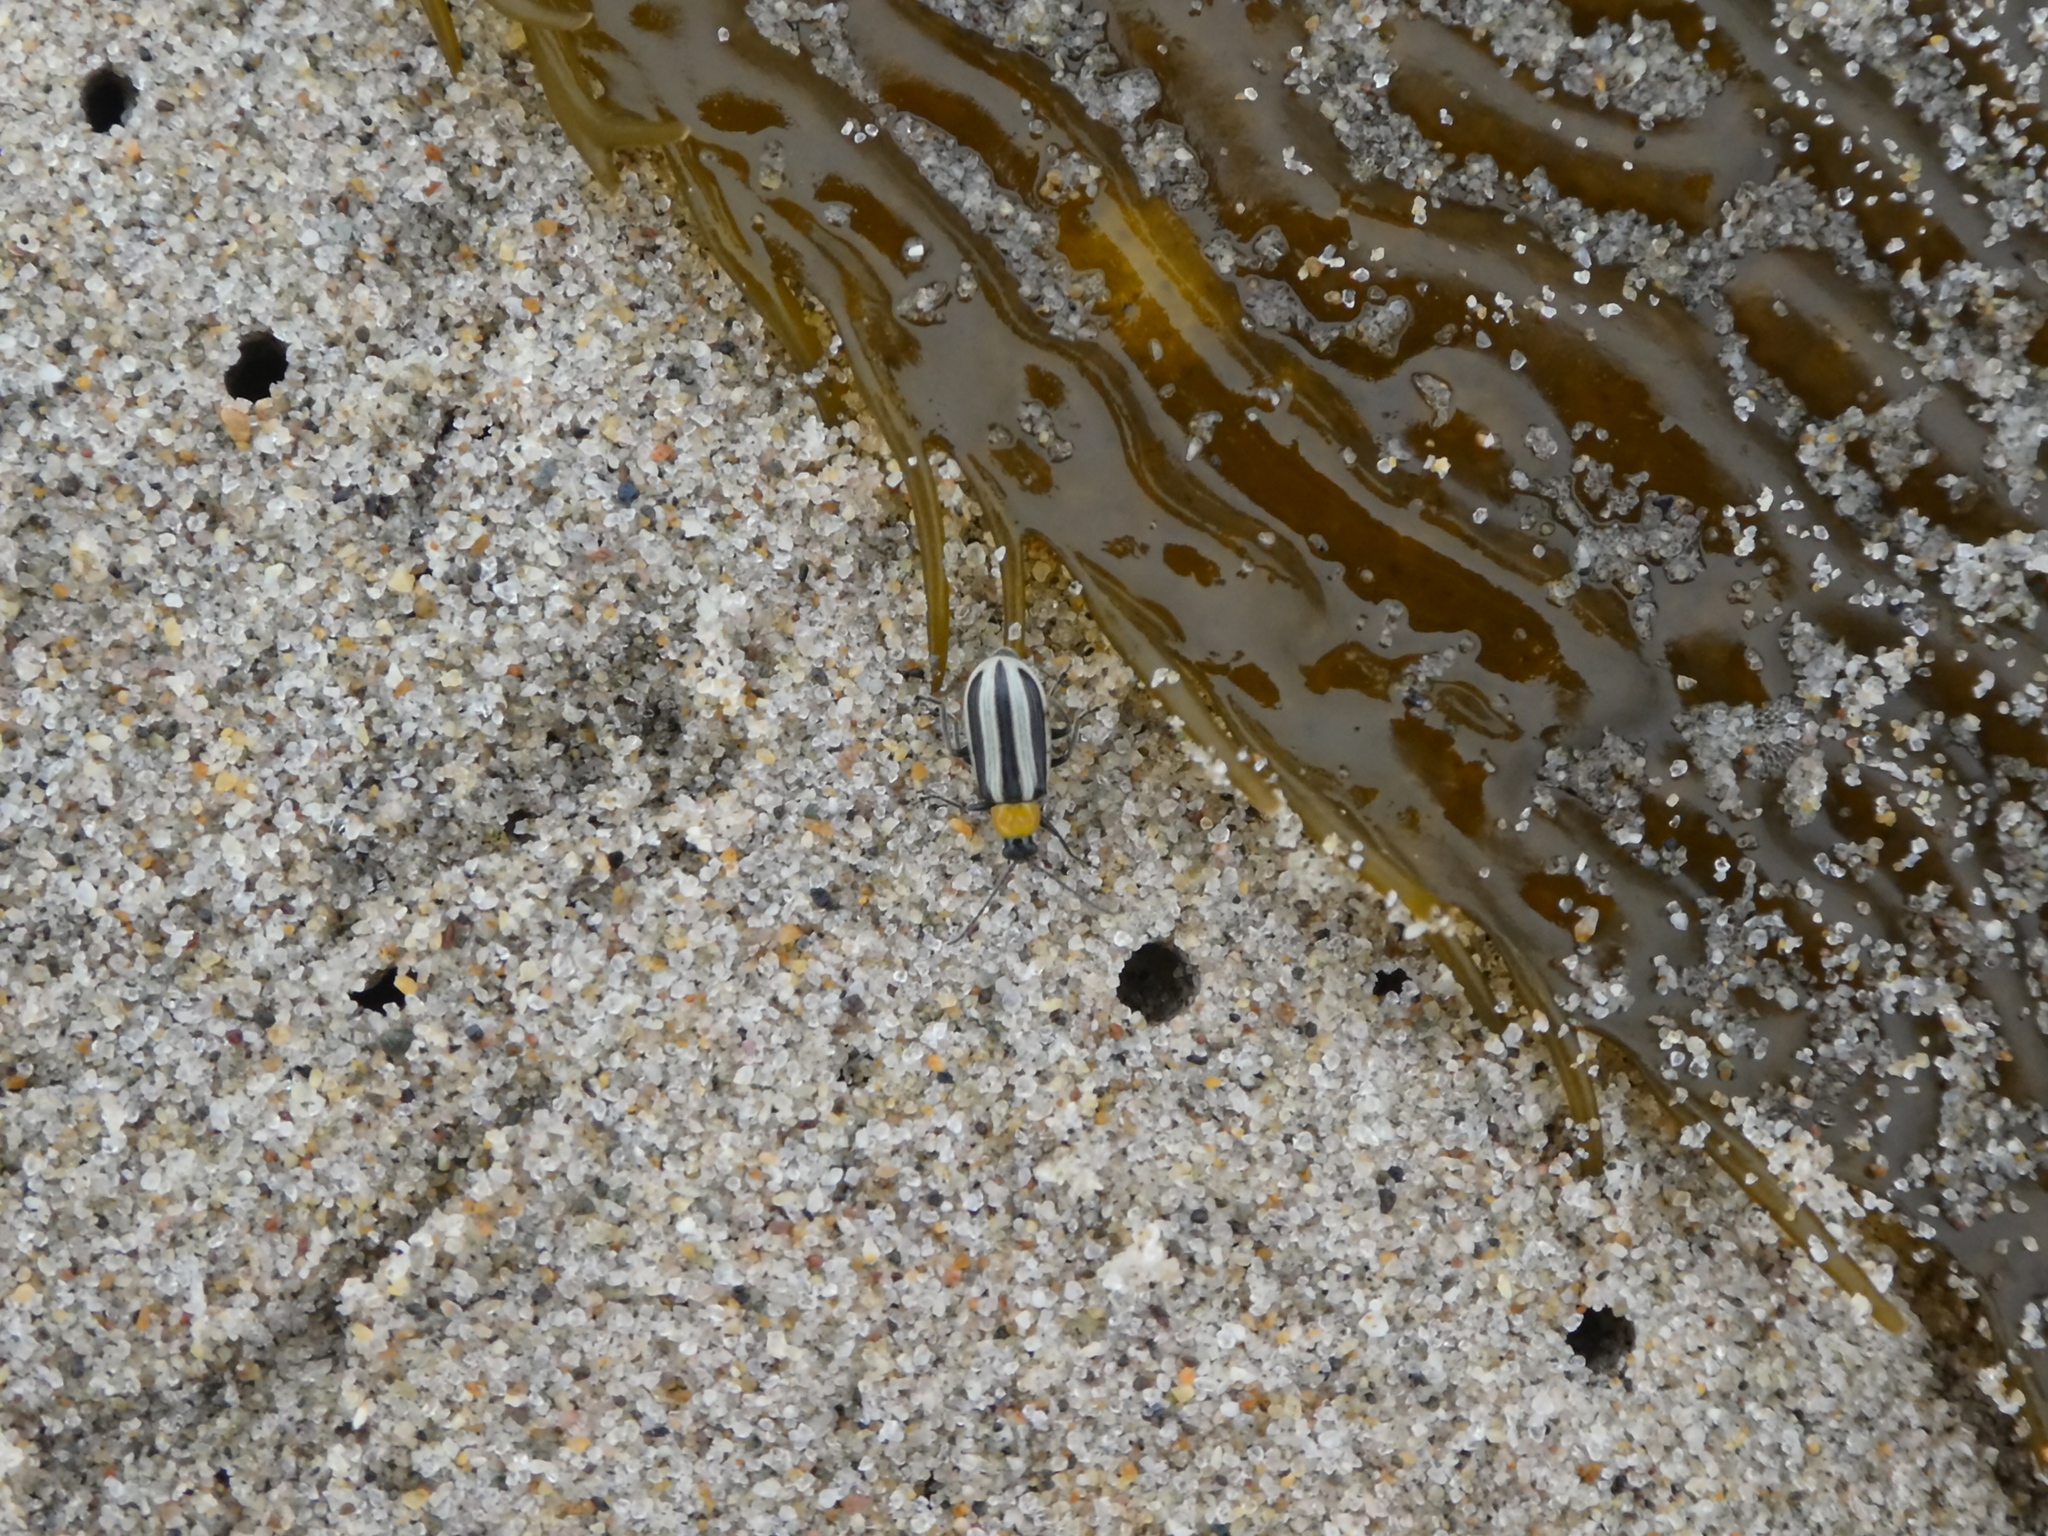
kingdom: Animalia
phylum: Arthropoda
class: Insecta
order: Coleoptera
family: Chrysomelidae
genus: Acalymma
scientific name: Acalymma trivittatum
